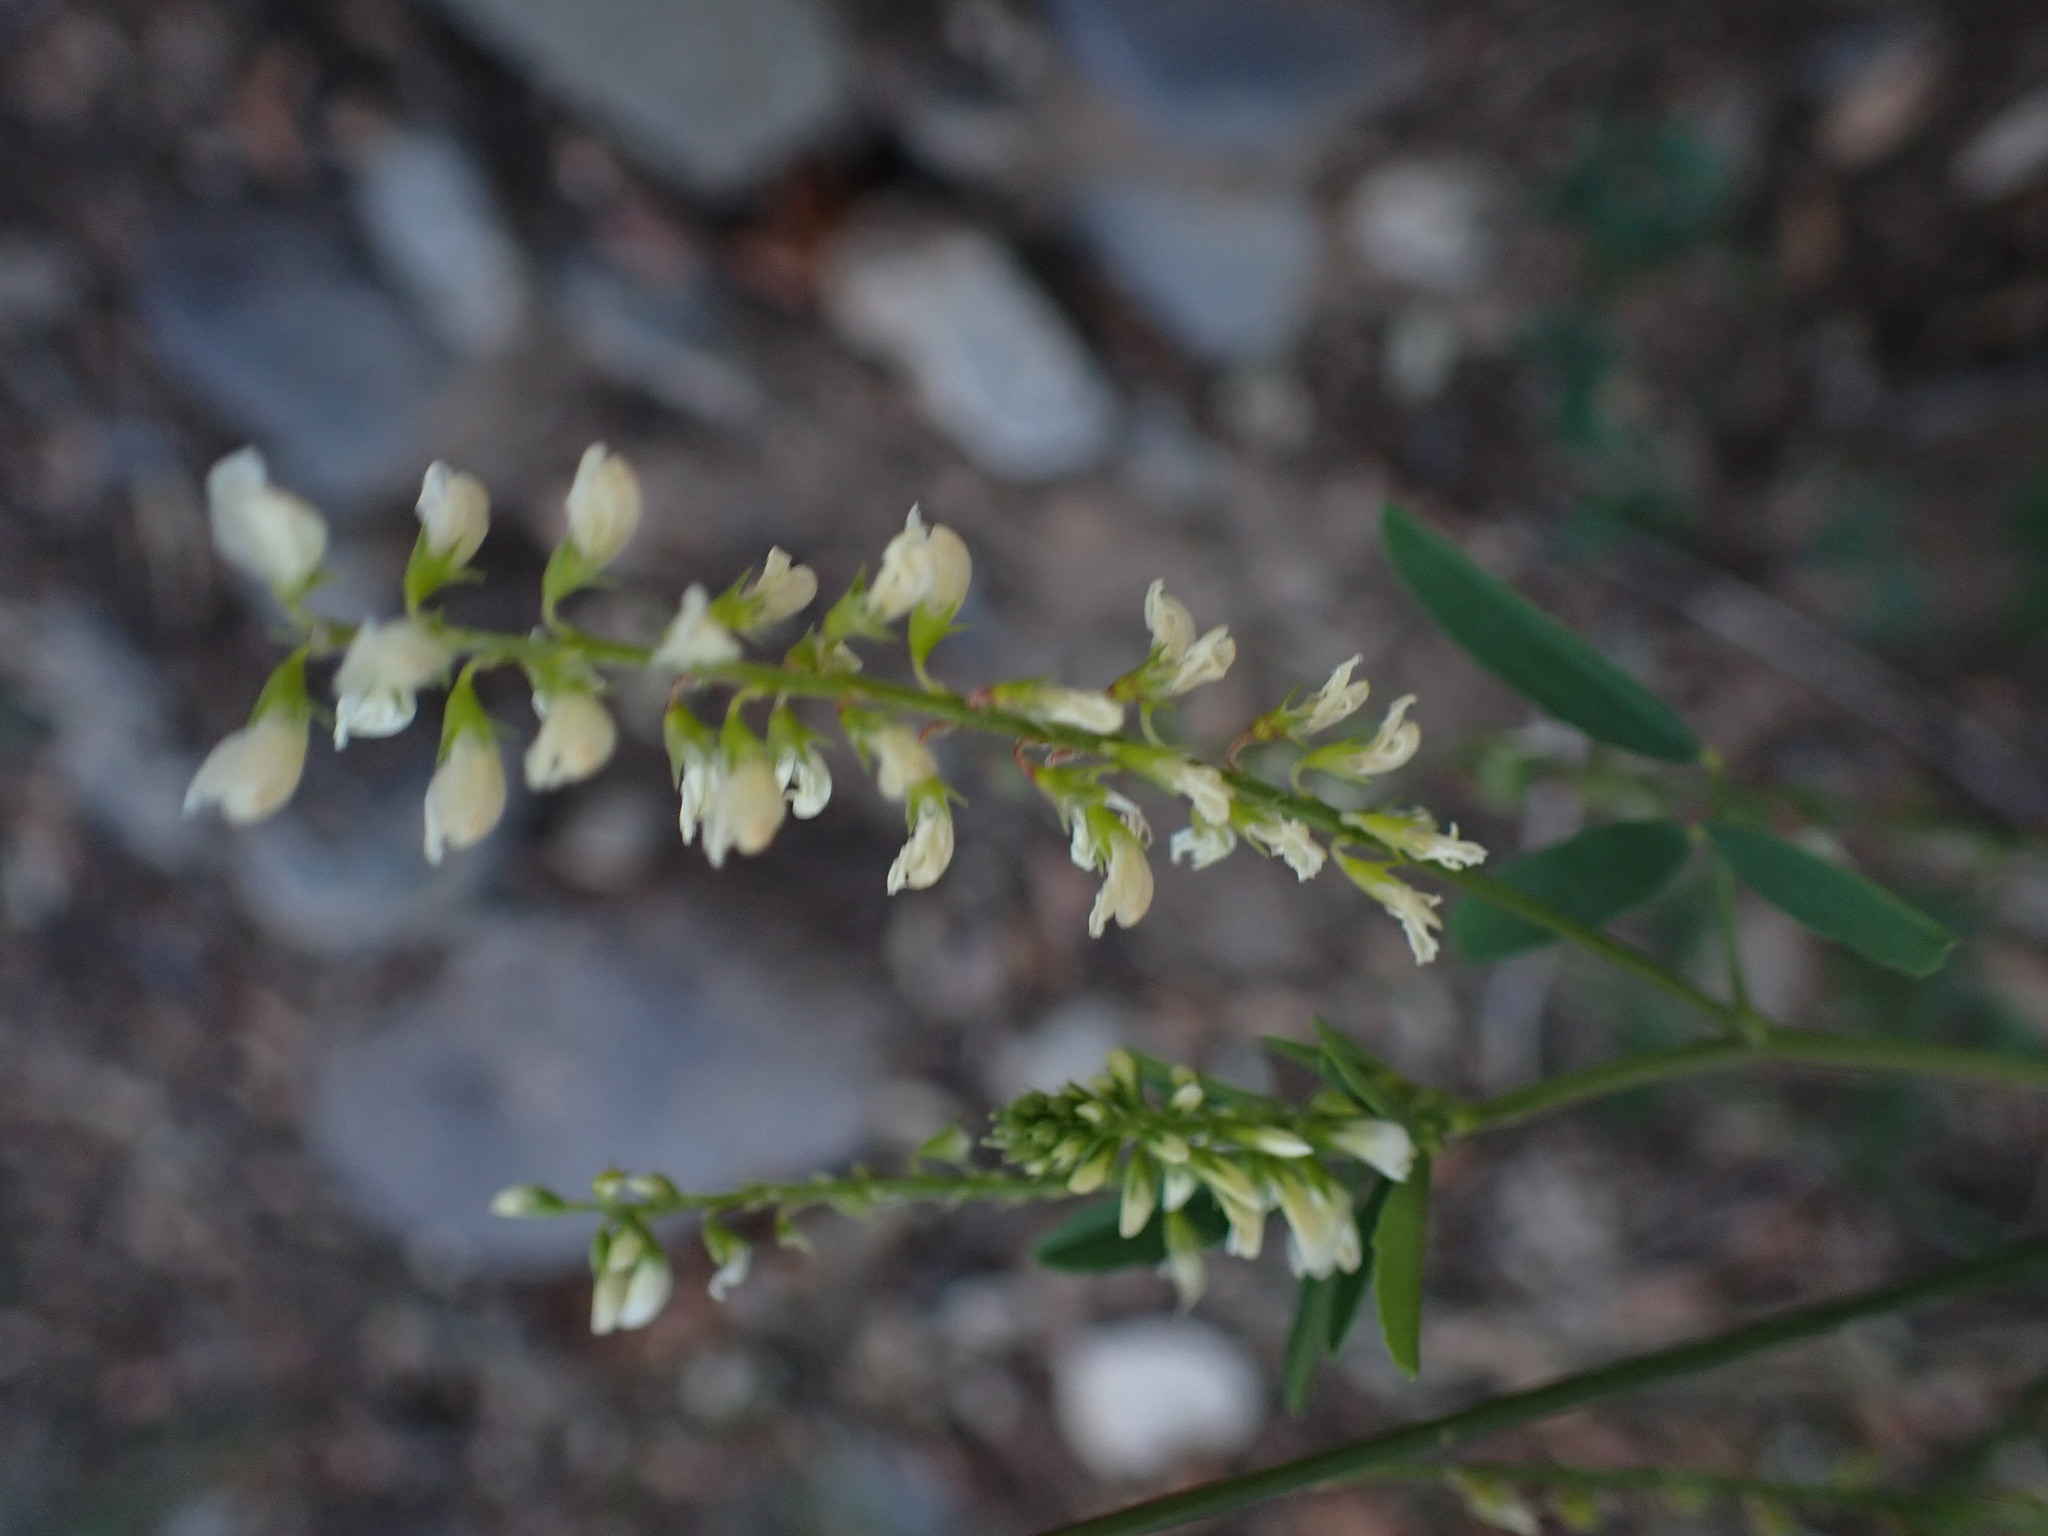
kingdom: Plantae
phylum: Tracheophyta
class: Magnoliopsida
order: Fabales
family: Fabaceae
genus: Melilotus
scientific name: Melilotus albus
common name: White melilot
